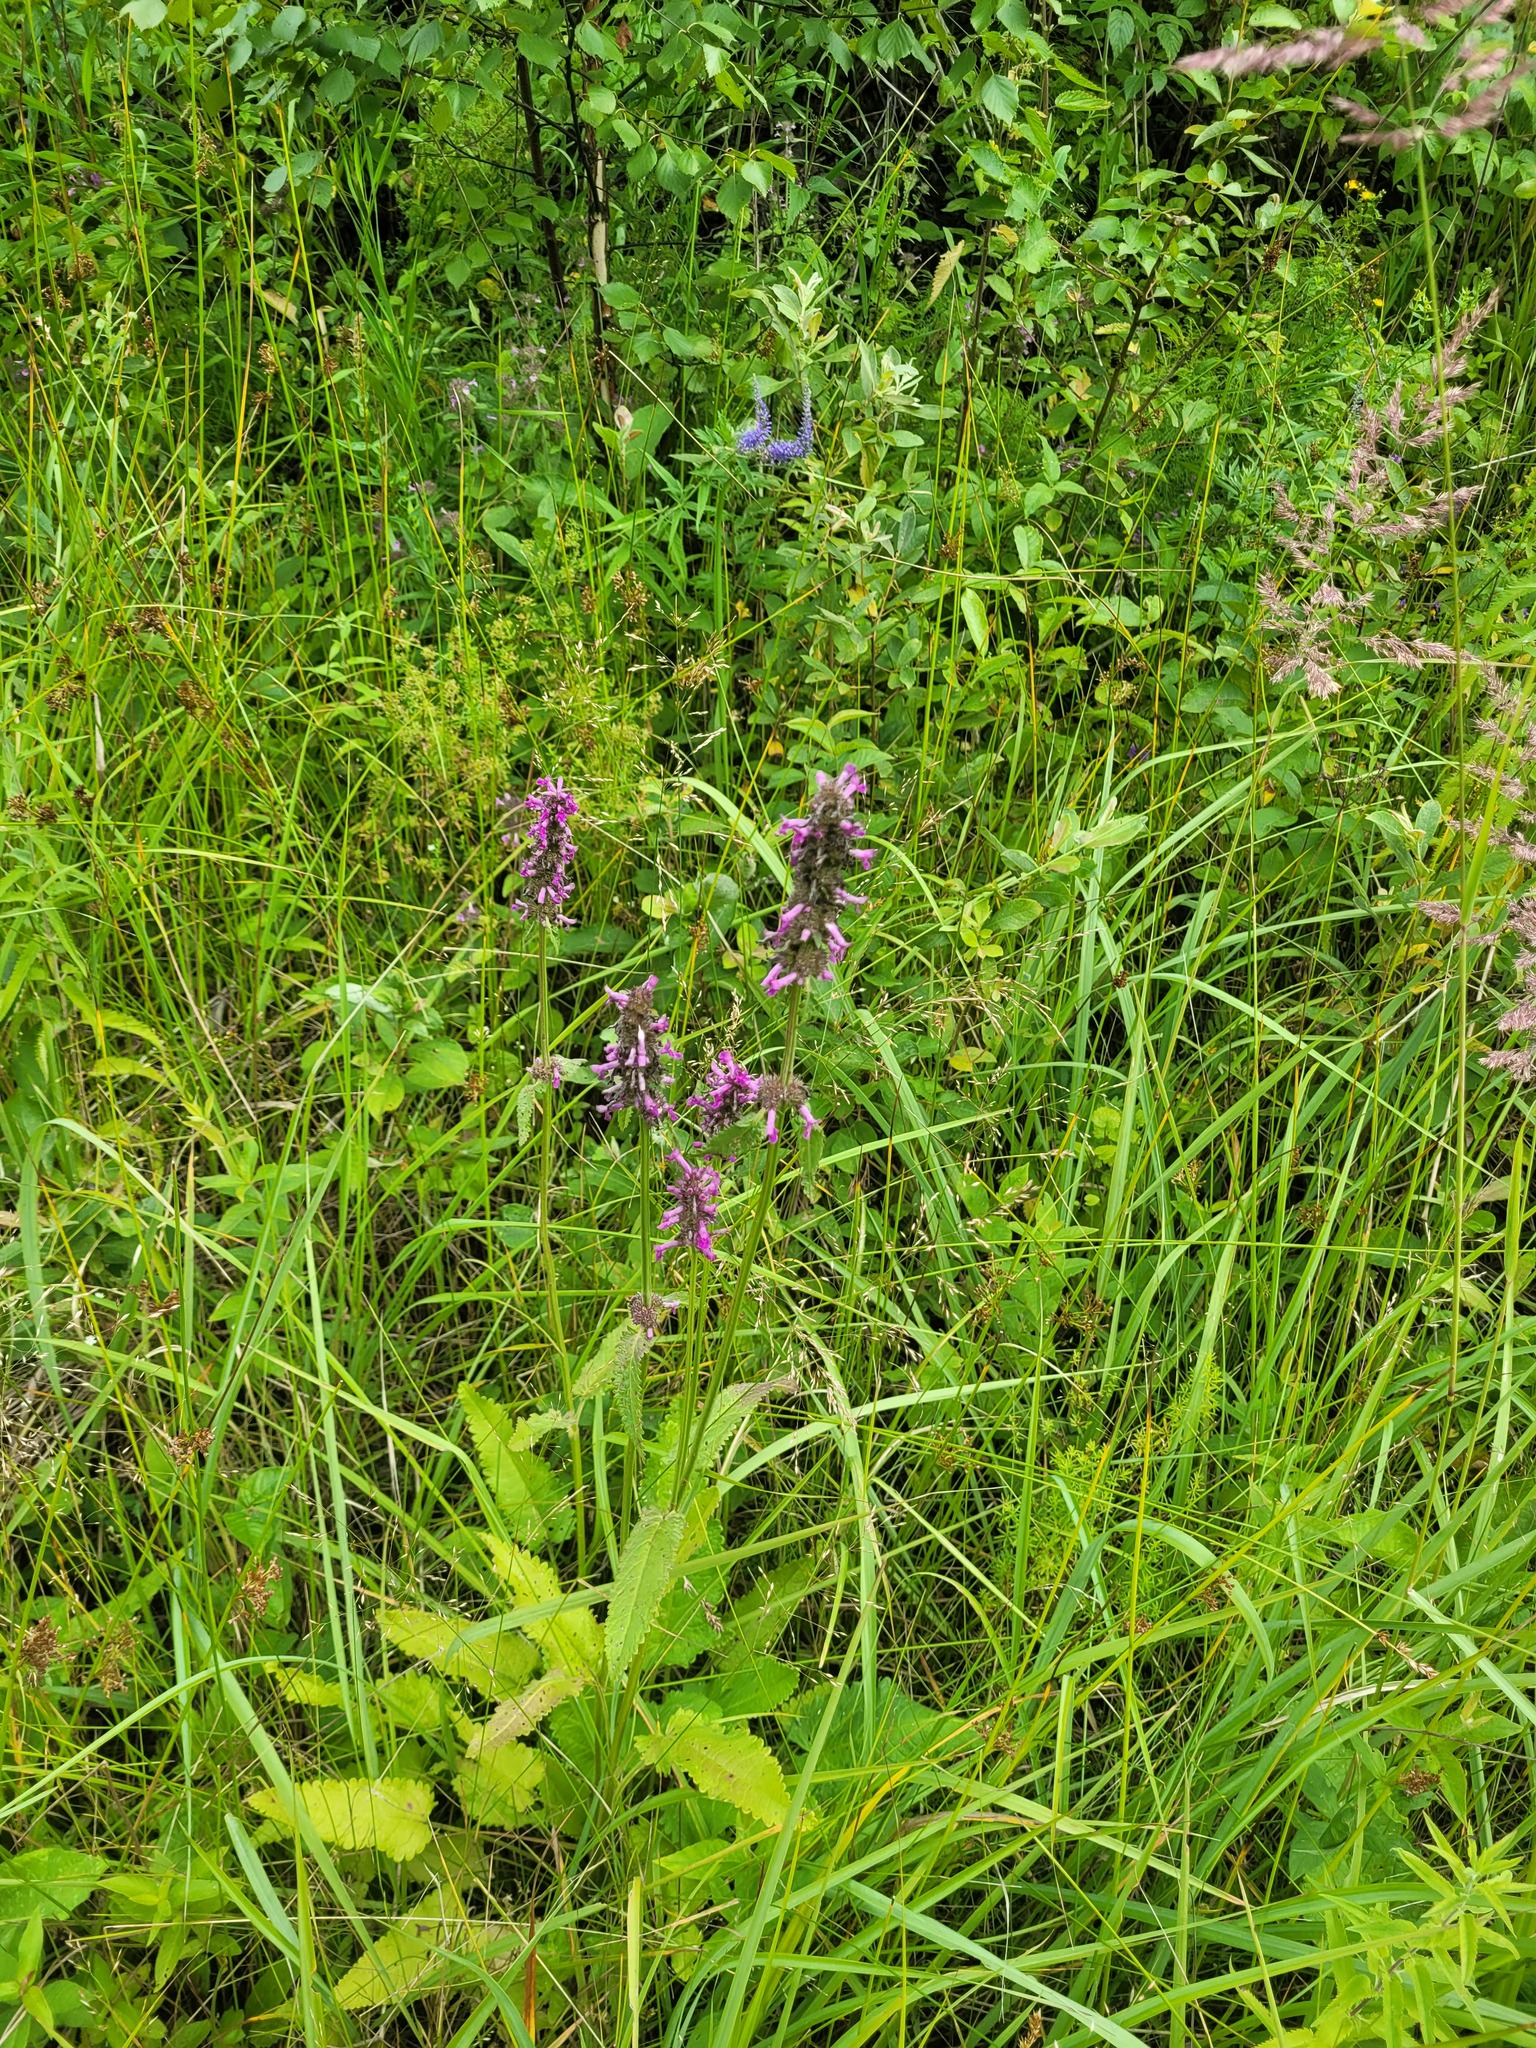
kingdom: Plantae
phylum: Tracheophyta
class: Magnoliopsida
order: Lamiales
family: Lamiaceae
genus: Betonica
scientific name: Betonica officinalis
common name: Bishop's-wort
